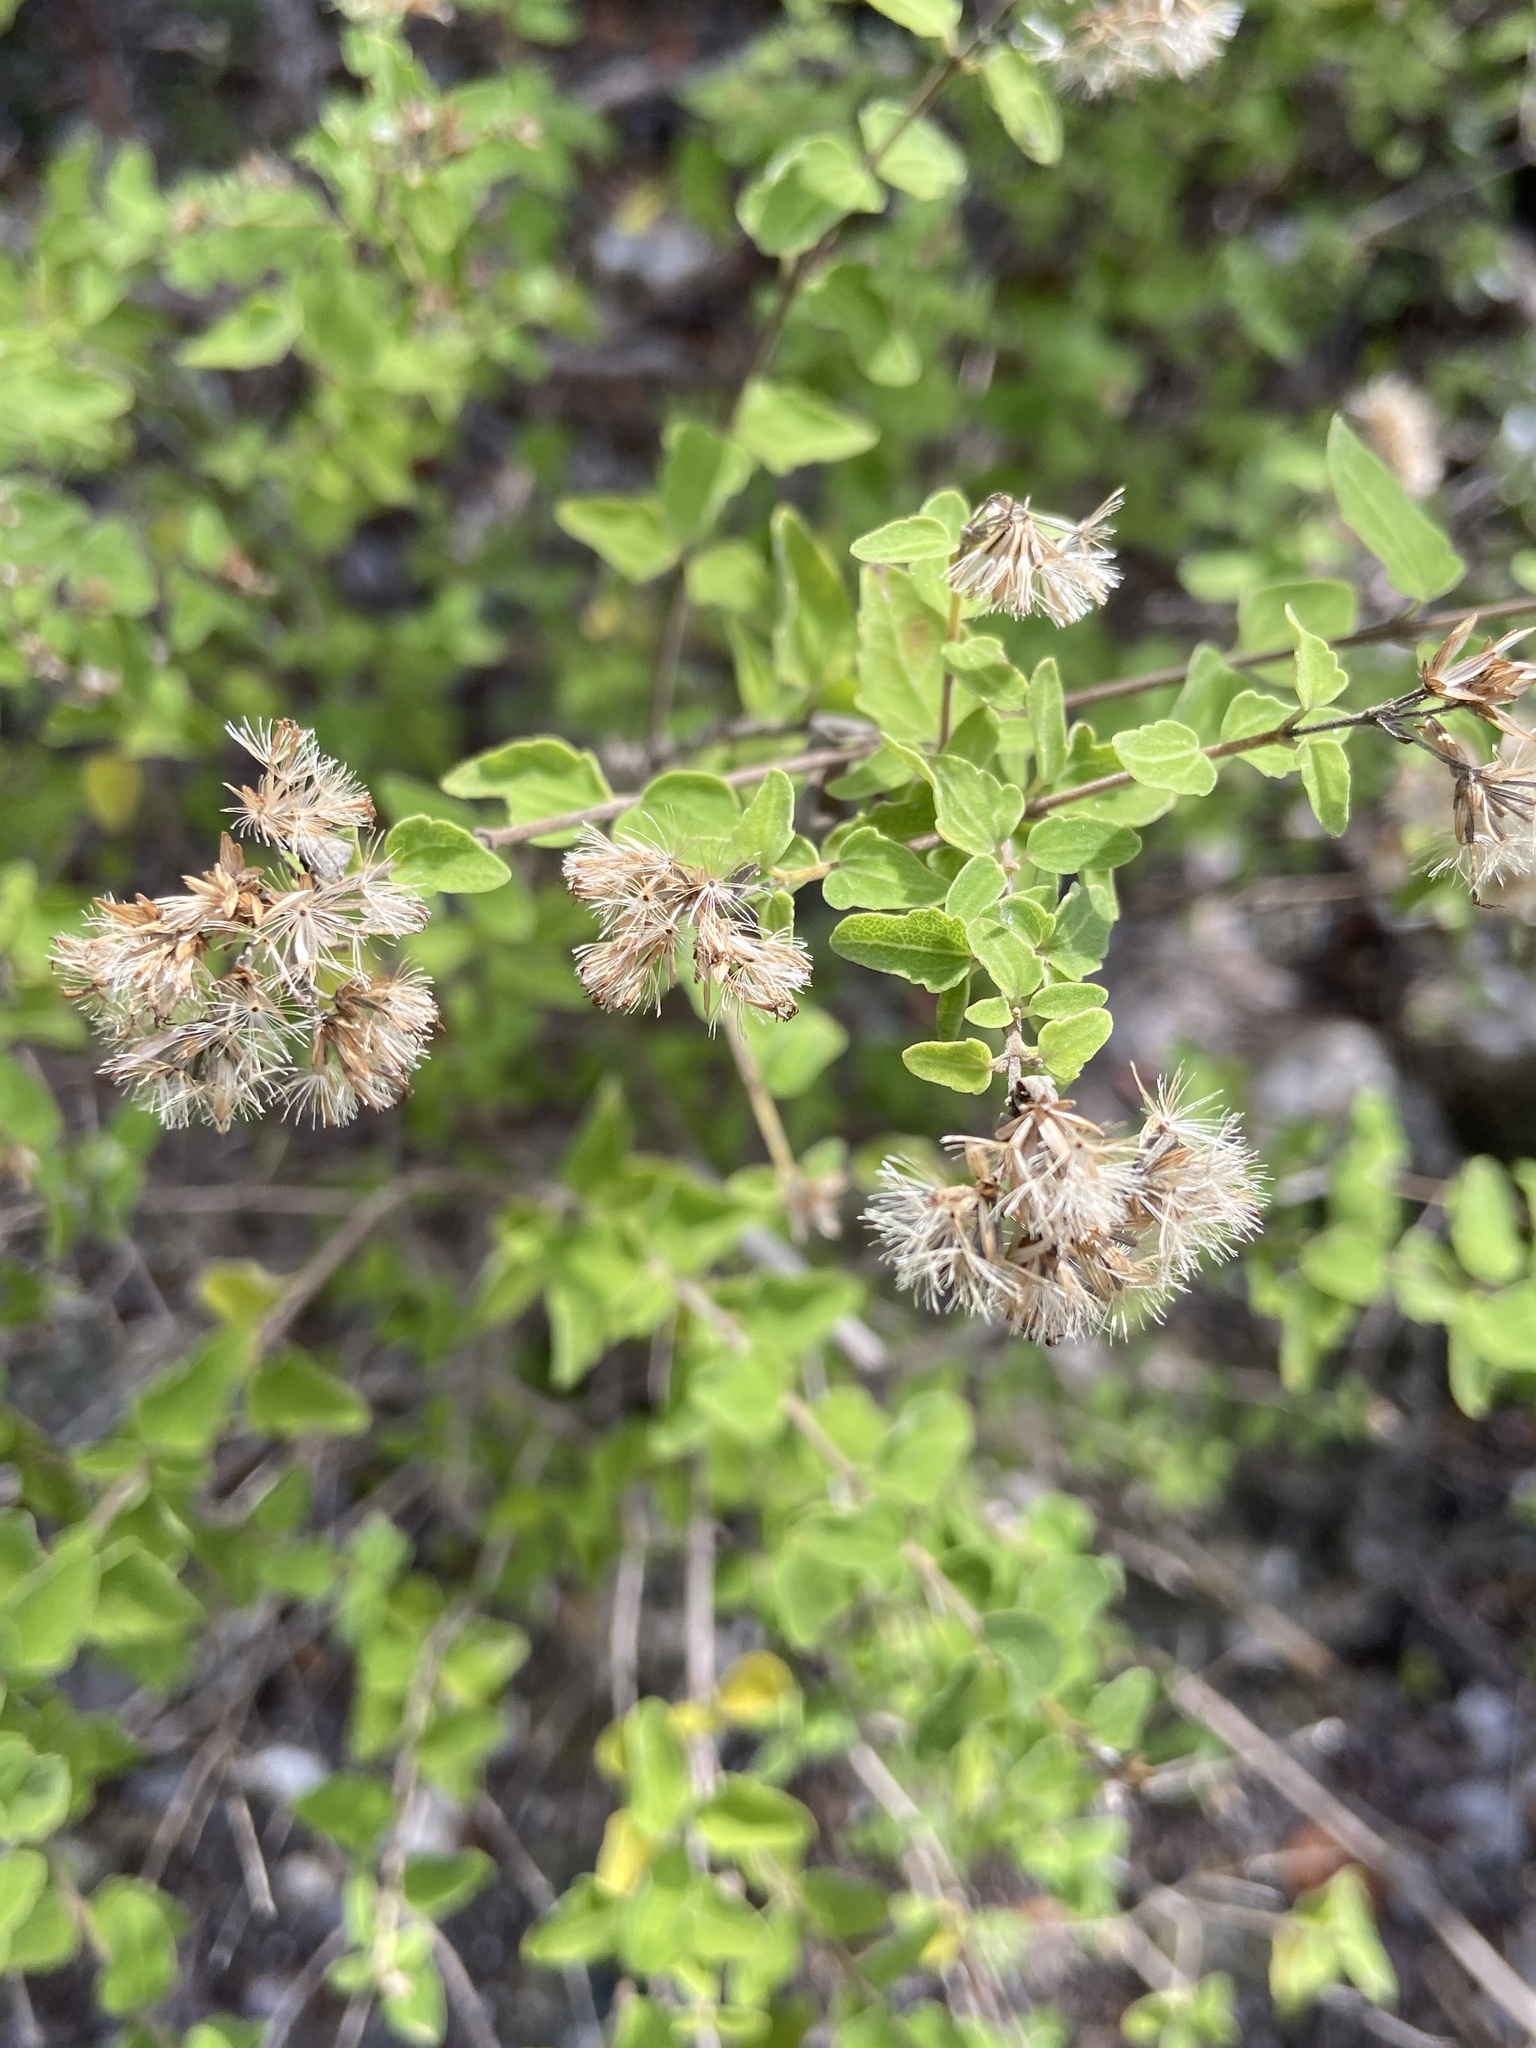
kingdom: Plantae
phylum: Tracheophyta
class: Magnoliopsida
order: Asterales
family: Asteraceae
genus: Chromolaena
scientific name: Chromolaena sinuata
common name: Wavyleaf thoroughwort
